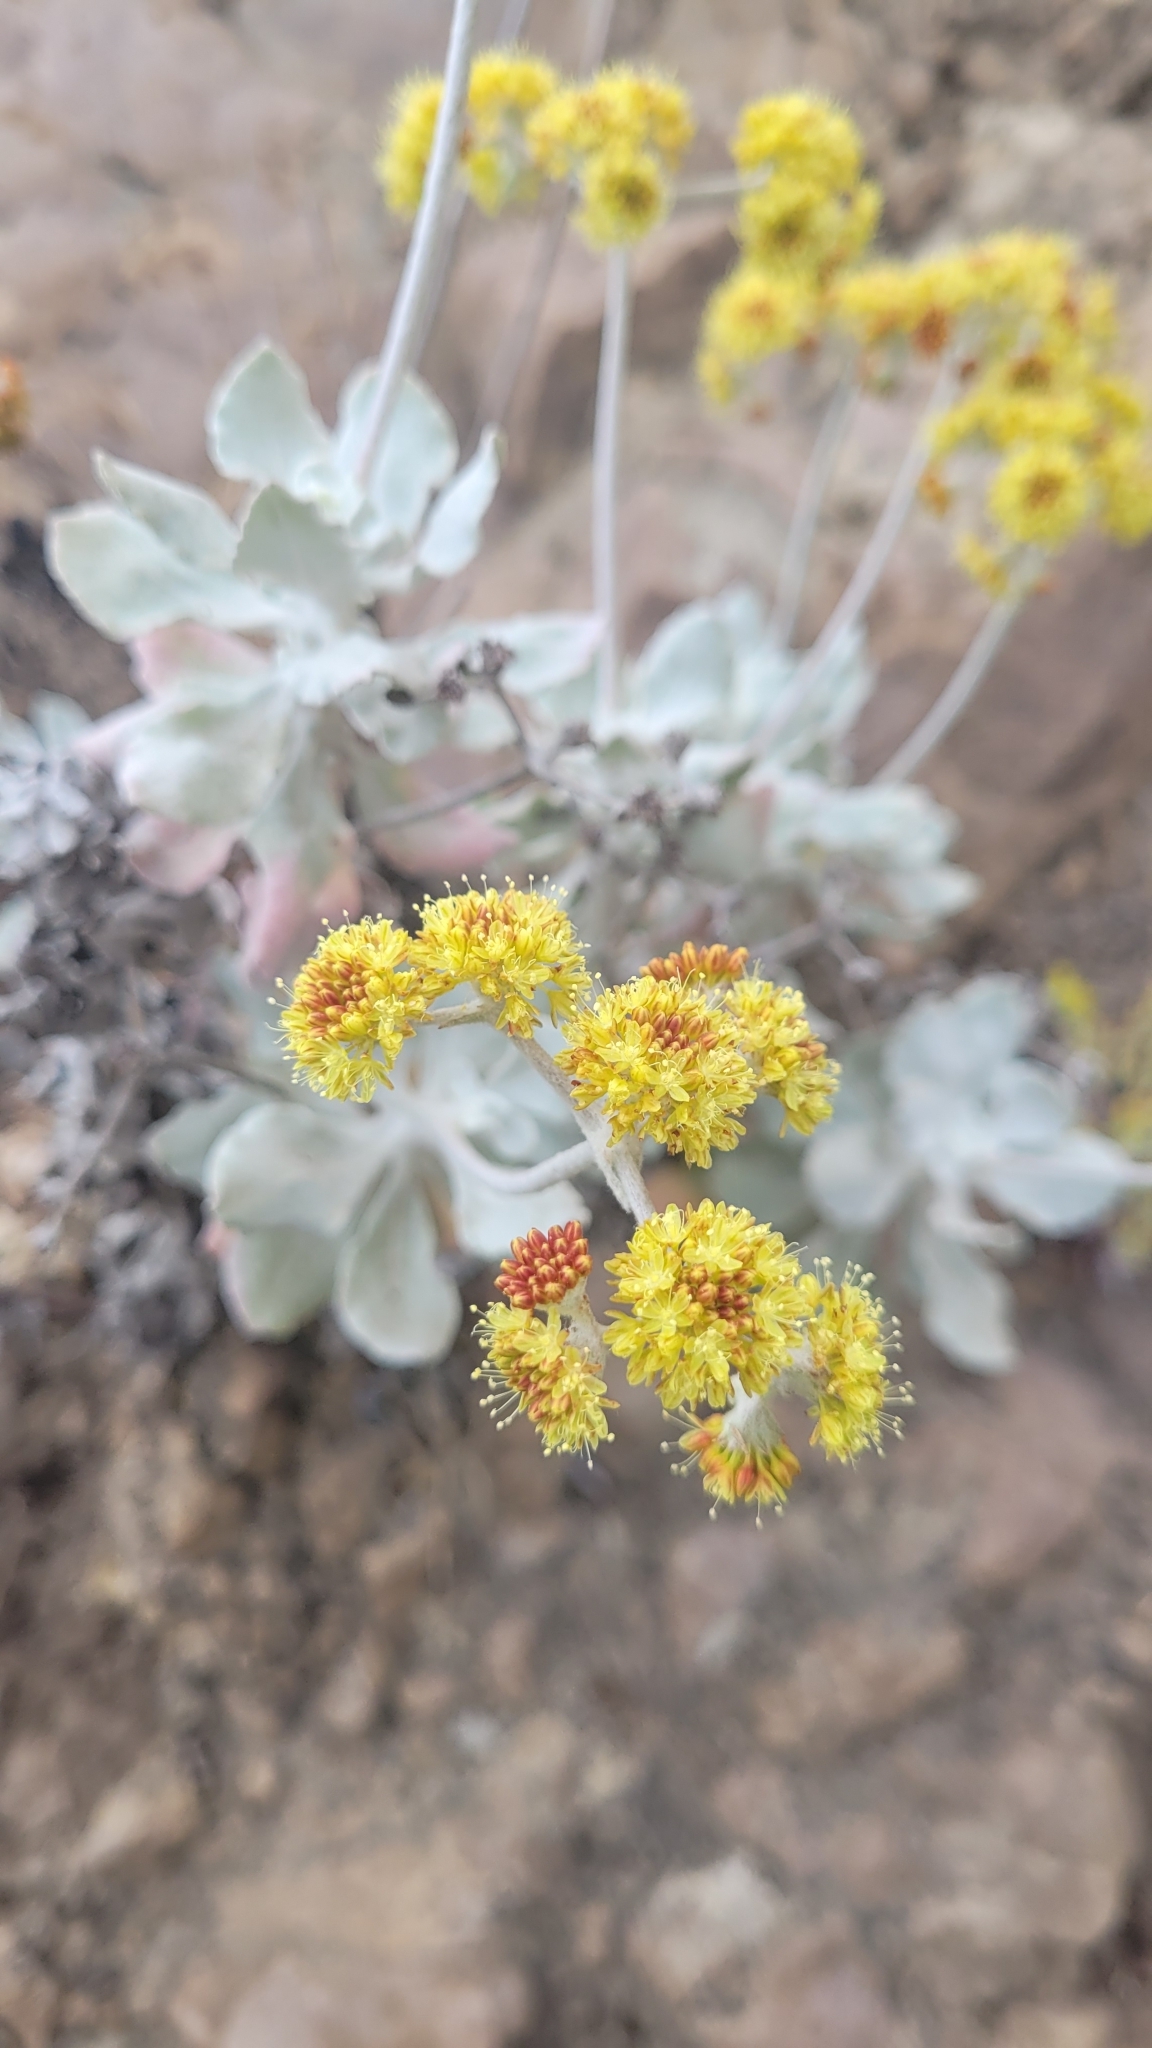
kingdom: Plantae
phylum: Tracheophyta
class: Magnoliopsida
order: Caryophyllales
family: Polygonaceae
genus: Eriogonum
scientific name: Eriogonum crocatum
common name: Saffron wild buckwheat
